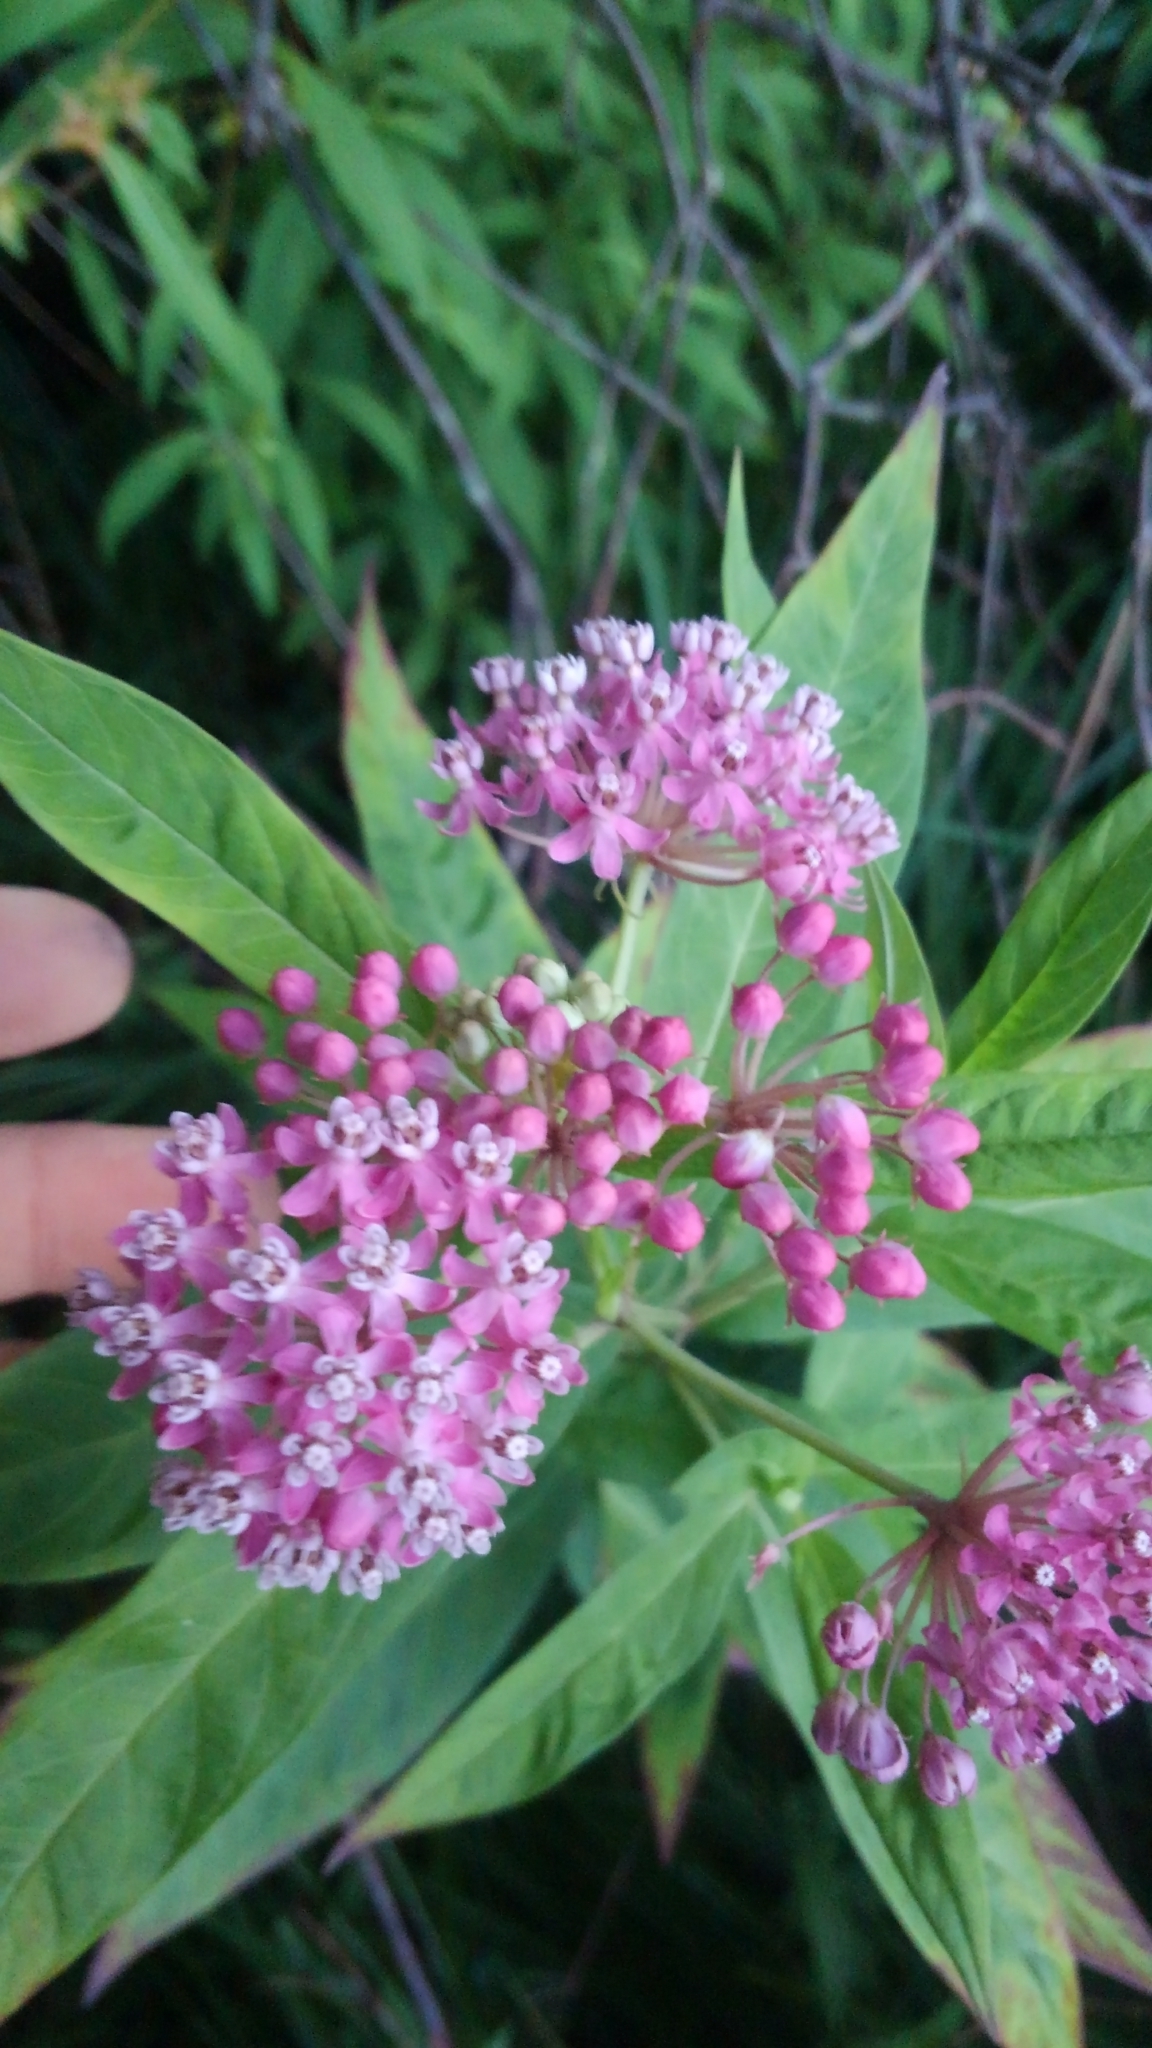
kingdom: Plantae
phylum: Tracheophyta
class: Magnoliopsida
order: Gentianales
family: Apocynaceae
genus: Asclepias
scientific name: Asclepias incarnata
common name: Swamp milkweed
